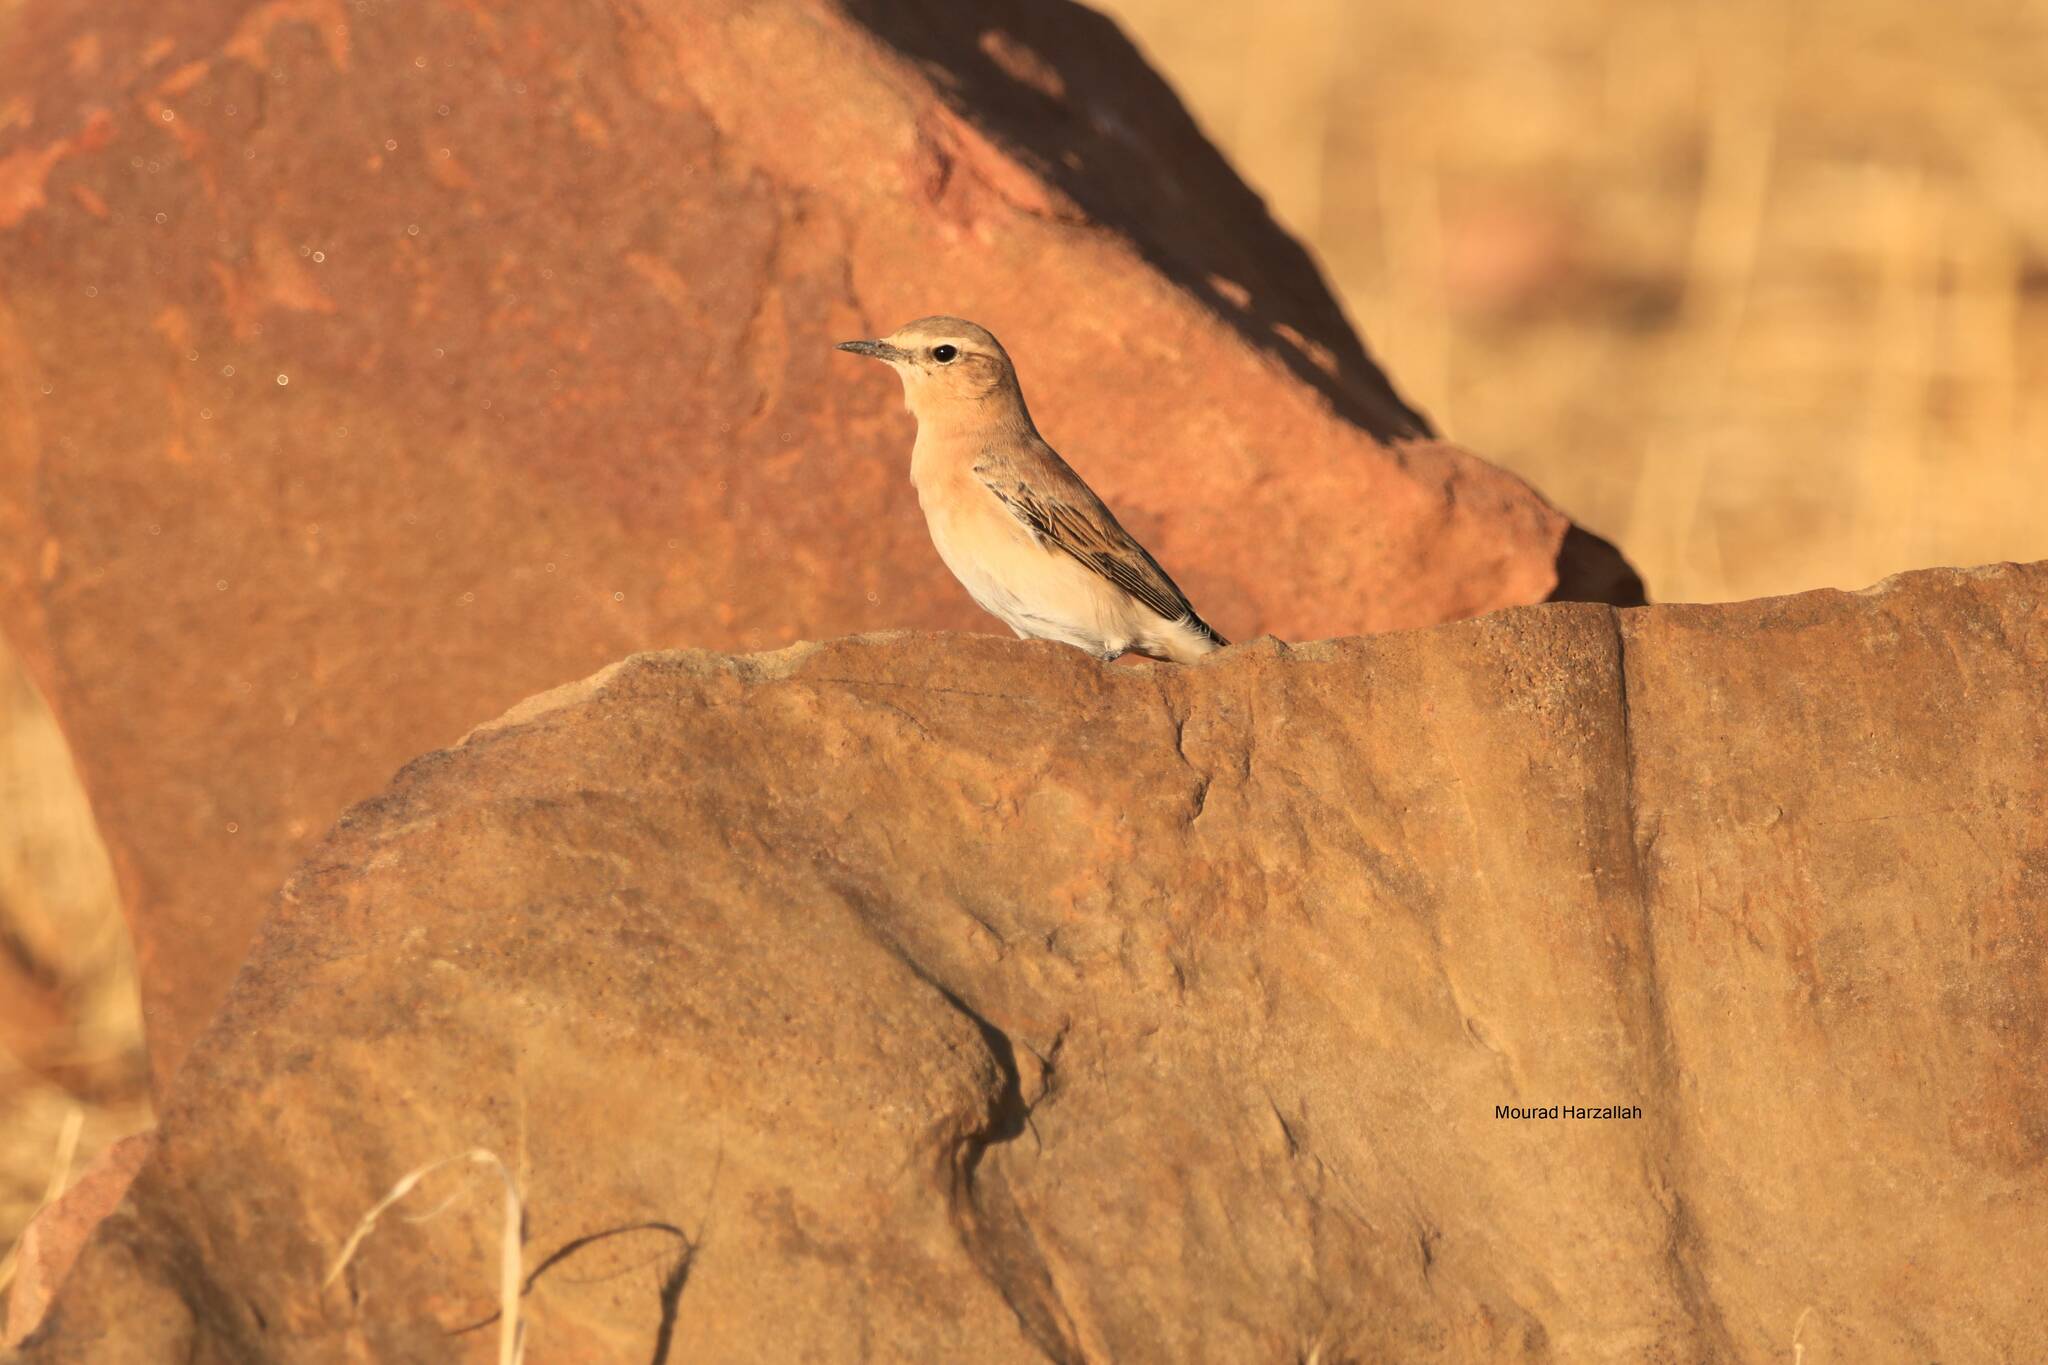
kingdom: Animalia
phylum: Chordata
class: Aves
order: Passeriformes
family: Muscicapidae
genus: Oenanthe
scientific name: Oenanthe isabellina
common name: Isabelline wheatear
